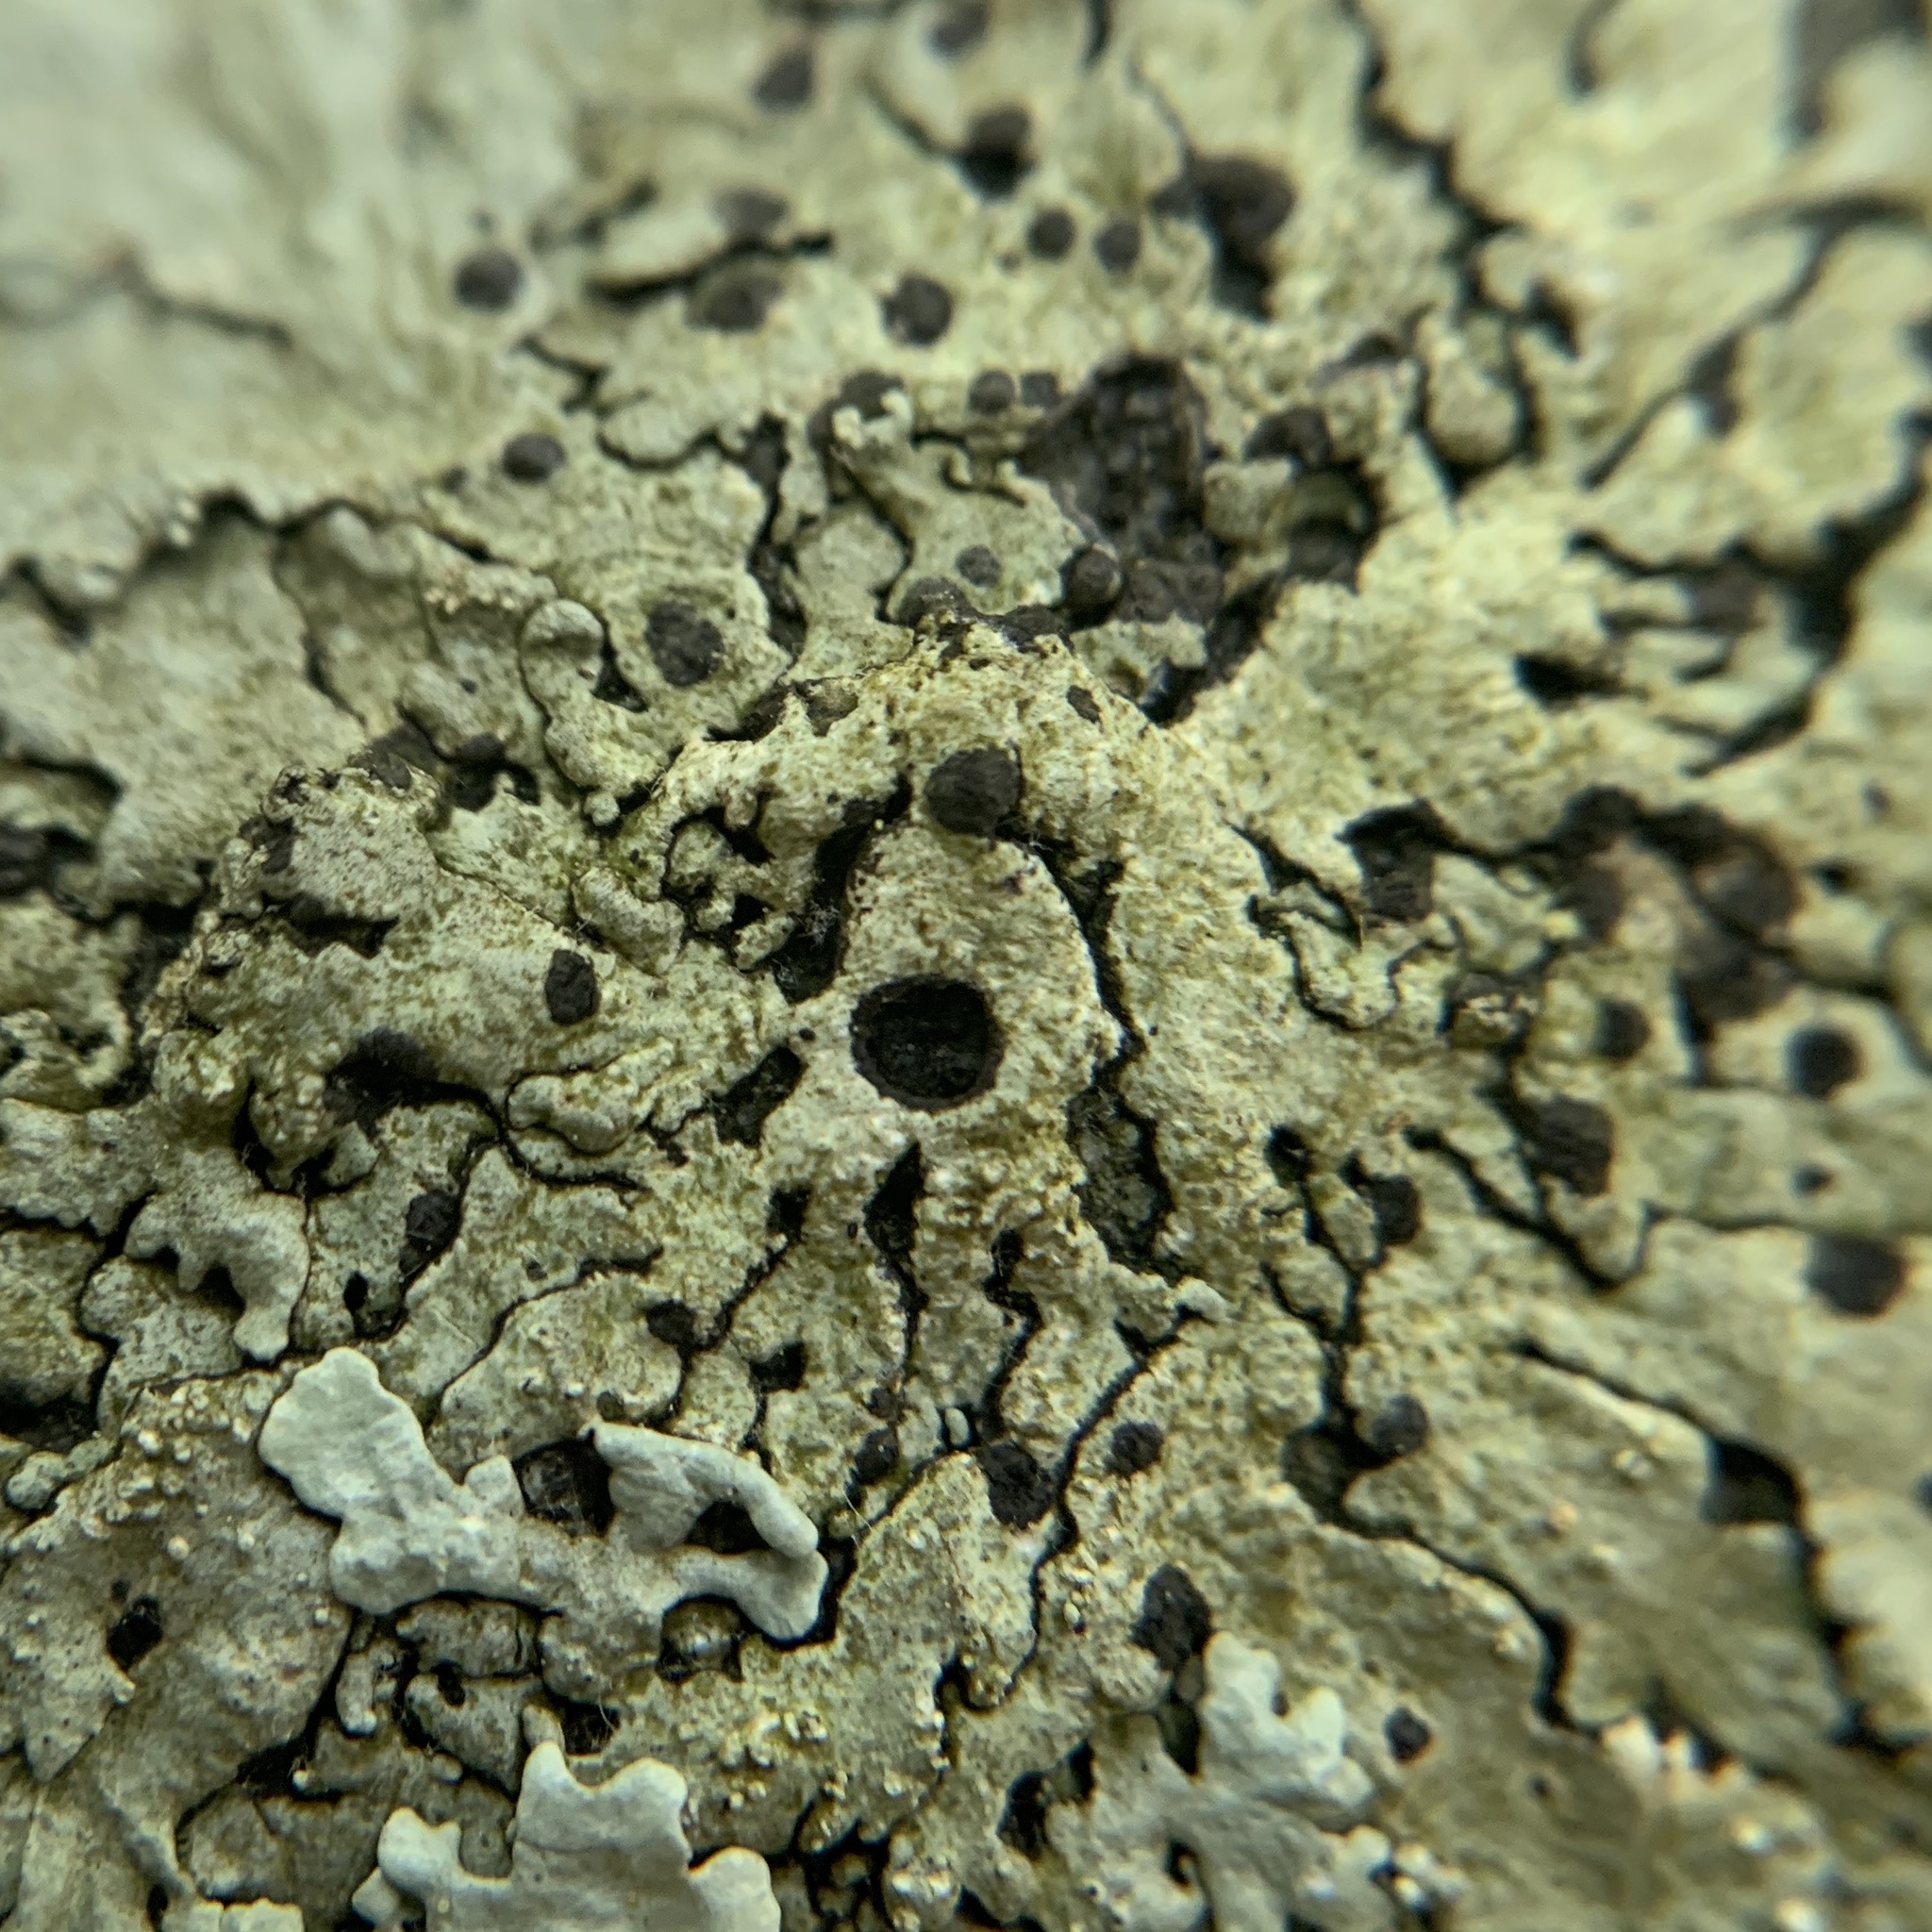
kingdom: Fungi
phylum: Ascomycota
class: Lecanoromycetes
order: Lecanorales
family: Parmeliaceae
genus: Flavoparmelia
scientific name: Flavoparmelia baltimorensis
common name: Rock greenshield
